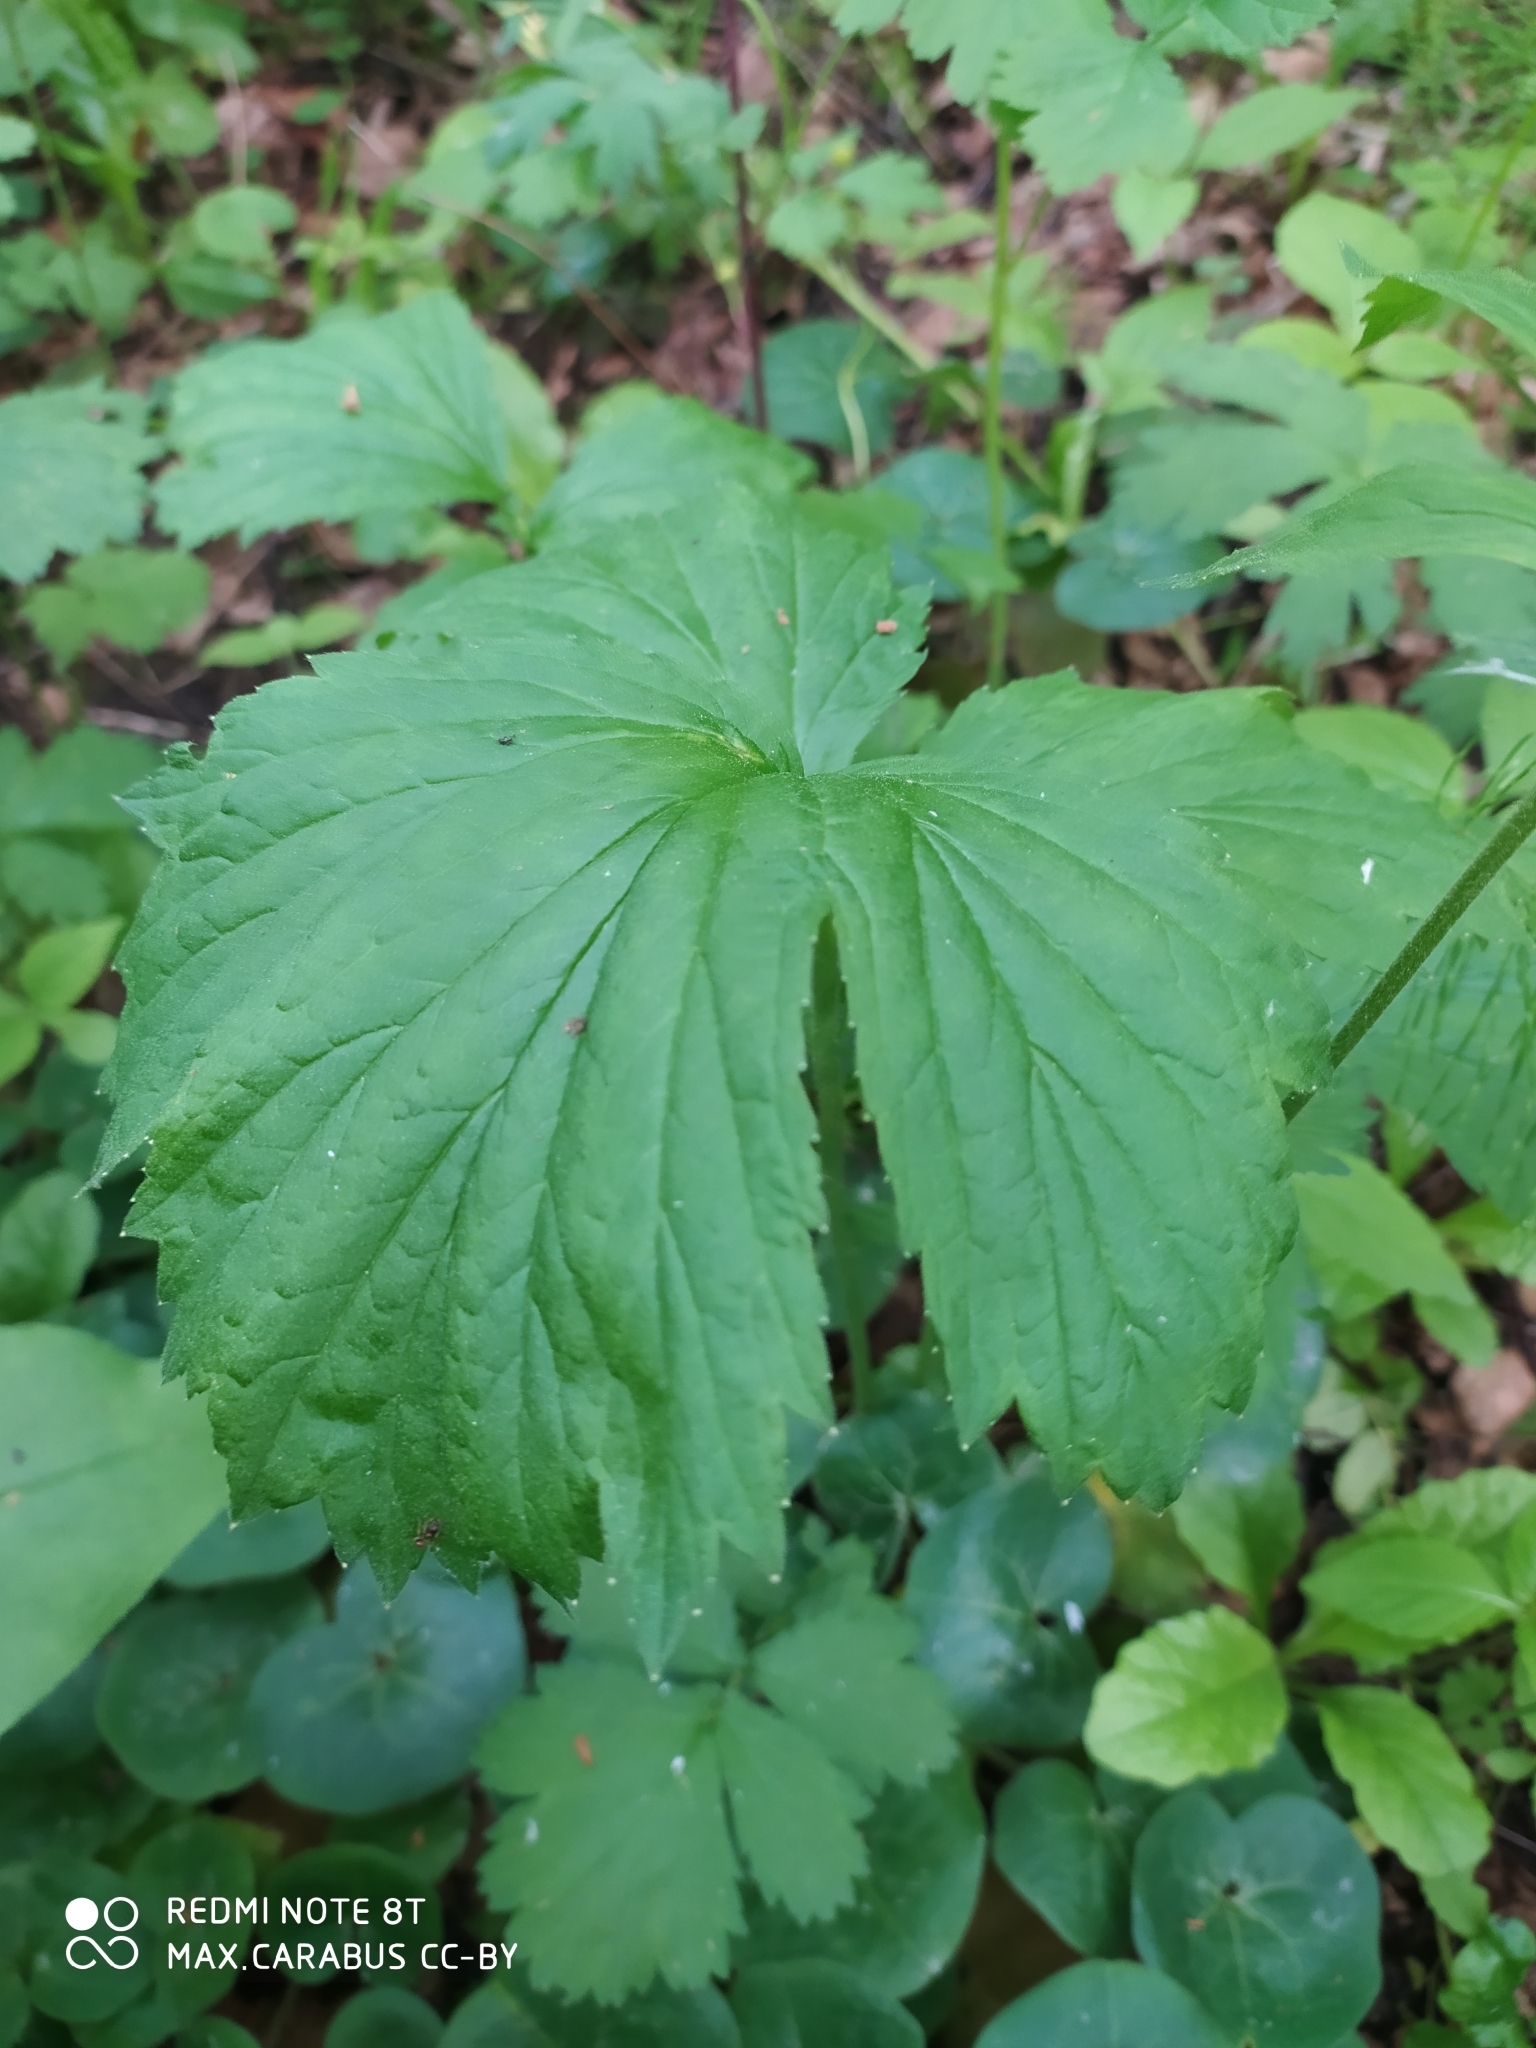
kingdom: Plantae
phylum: Tracheophyta
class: Magnoliopsida
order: Rosales
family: Rosaceae
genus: Geum
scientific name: Geum rivale
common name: Water avens
